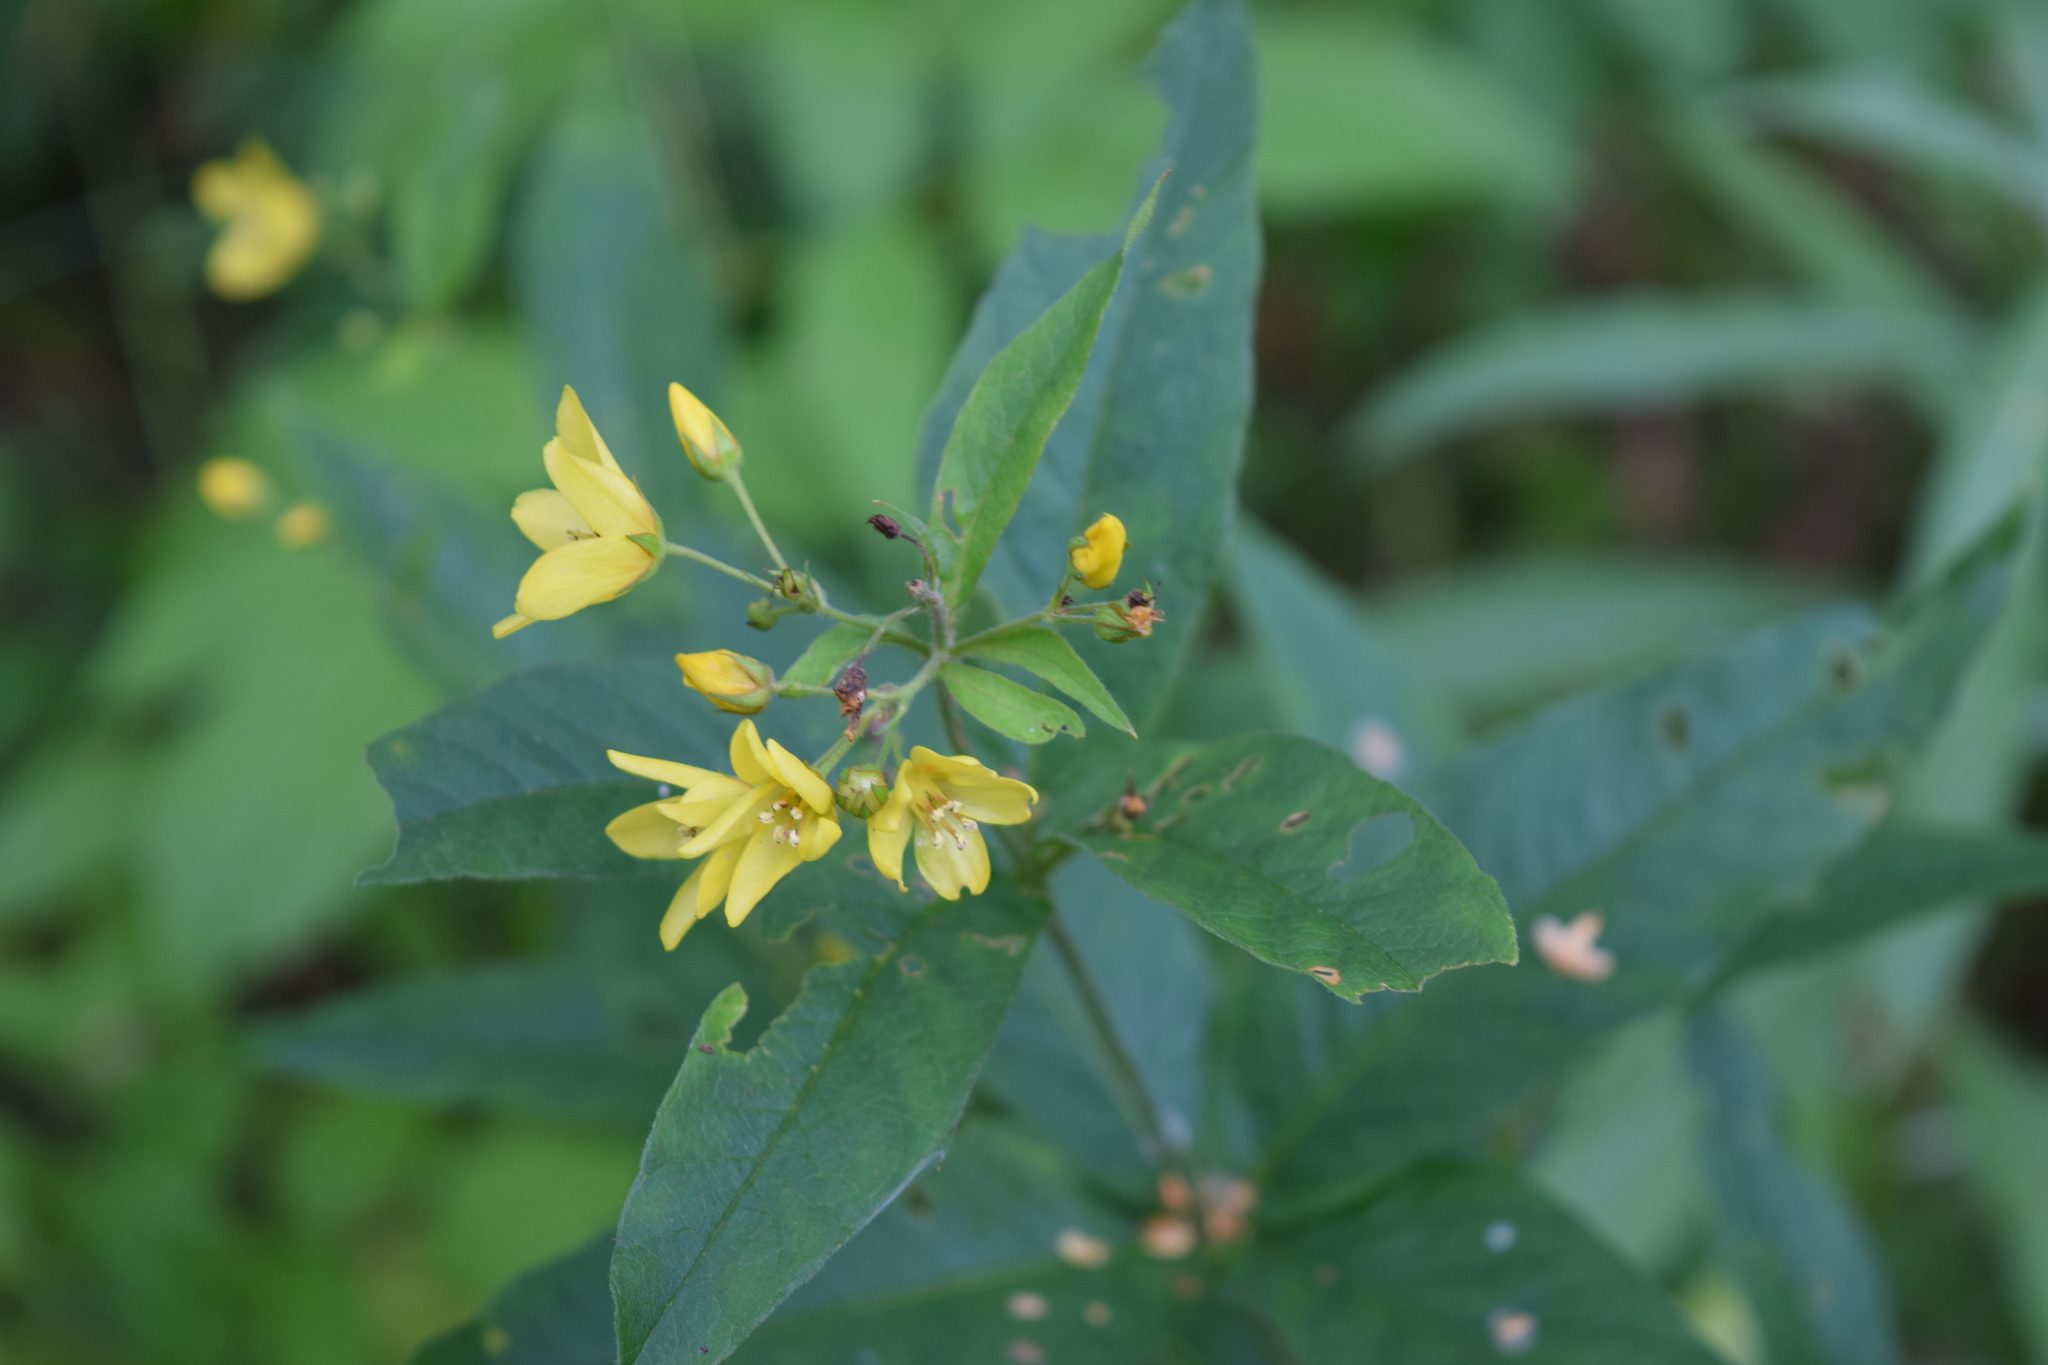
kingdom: Plantae
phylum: Tracheophyta
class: Magnoliopsida
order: Ericales
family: Primulaceae
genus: Lysimachia
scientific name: Lysimachia vulgaris
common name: Yellow loosestrife
